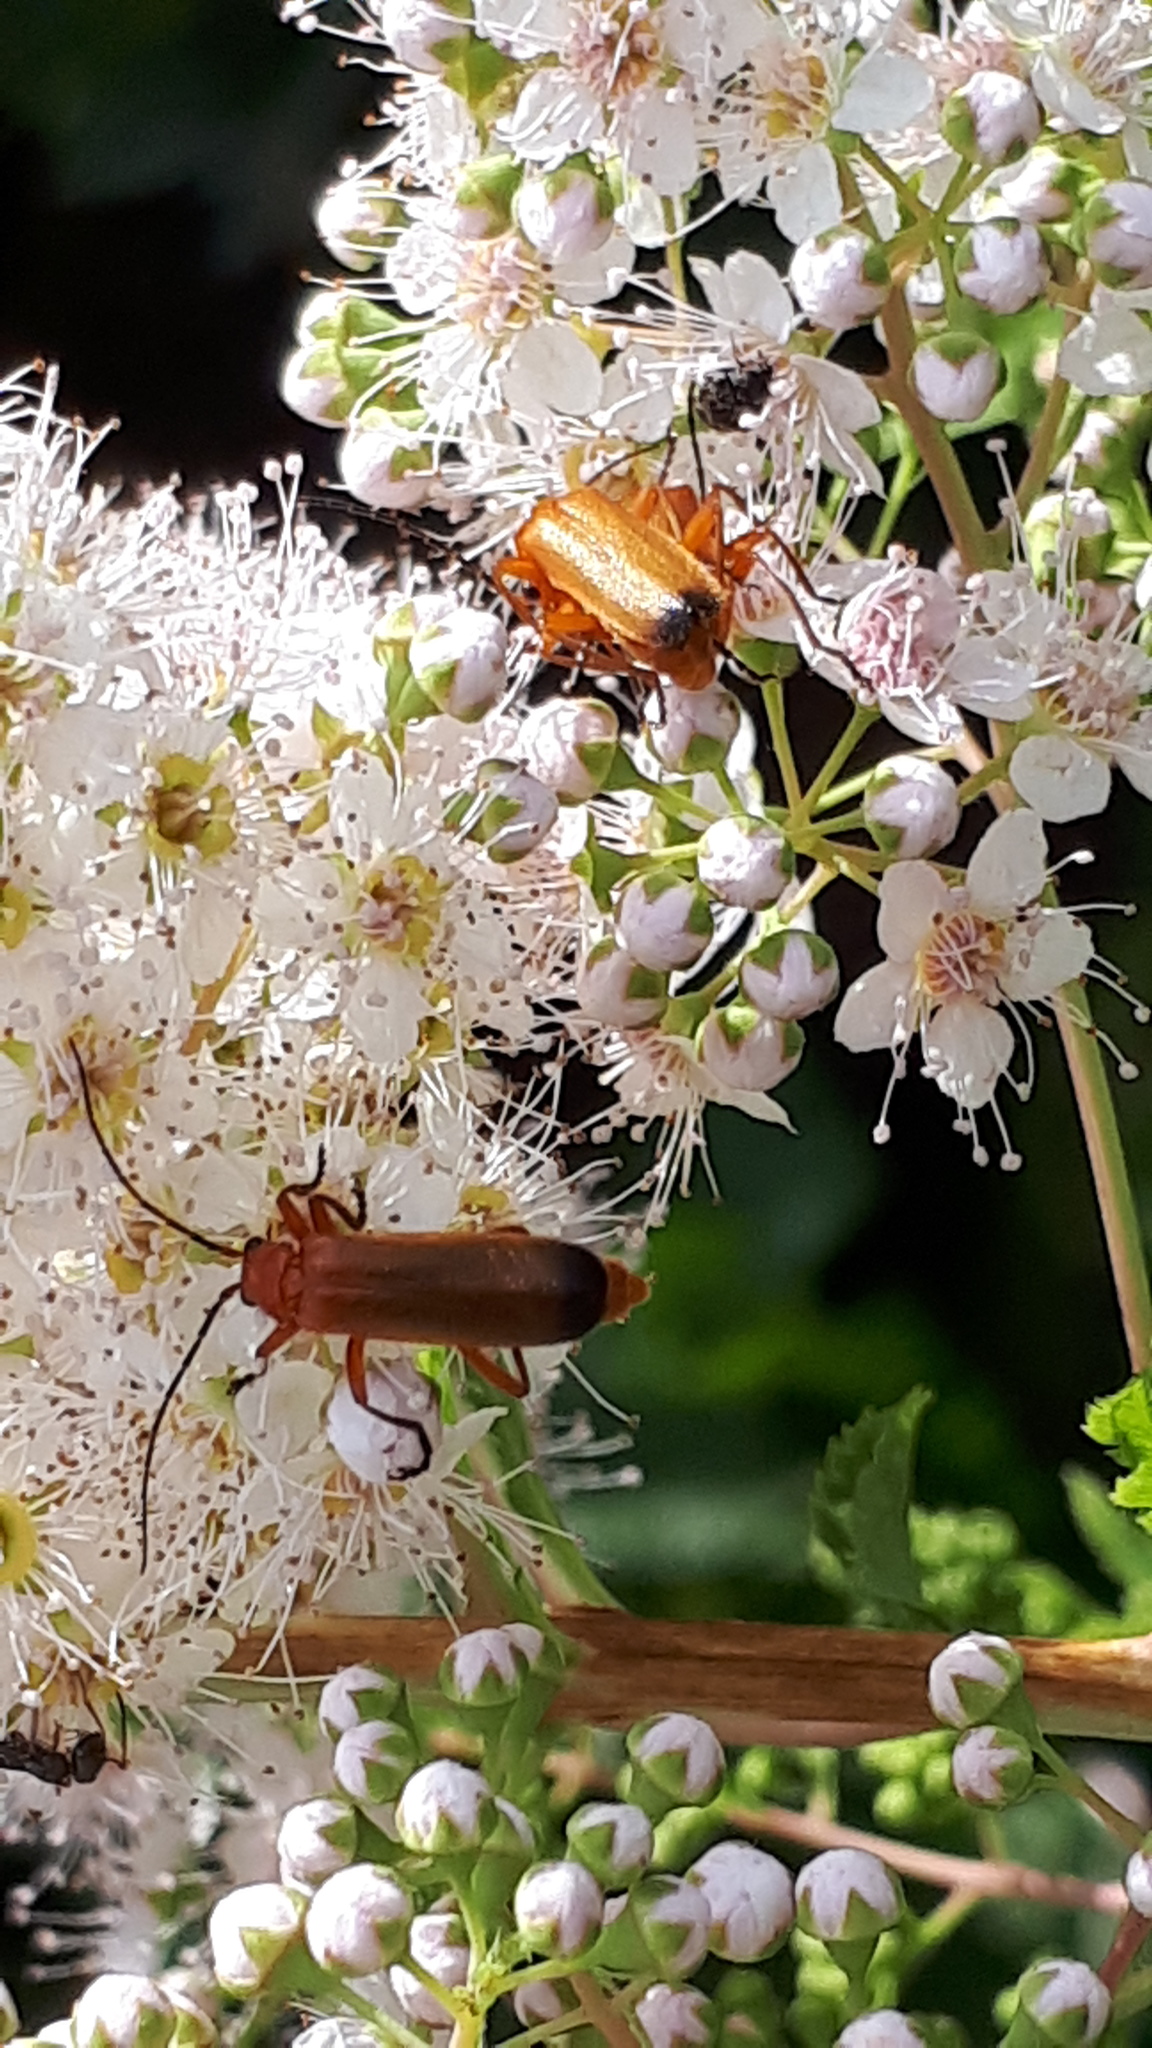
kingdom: Animalia
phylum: Arthropoda
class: Insecta
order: Coleoptera
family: Cantharidae
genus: Rhagonycha
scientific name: Rhagonycha fulva
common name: Common red soldier beetle
